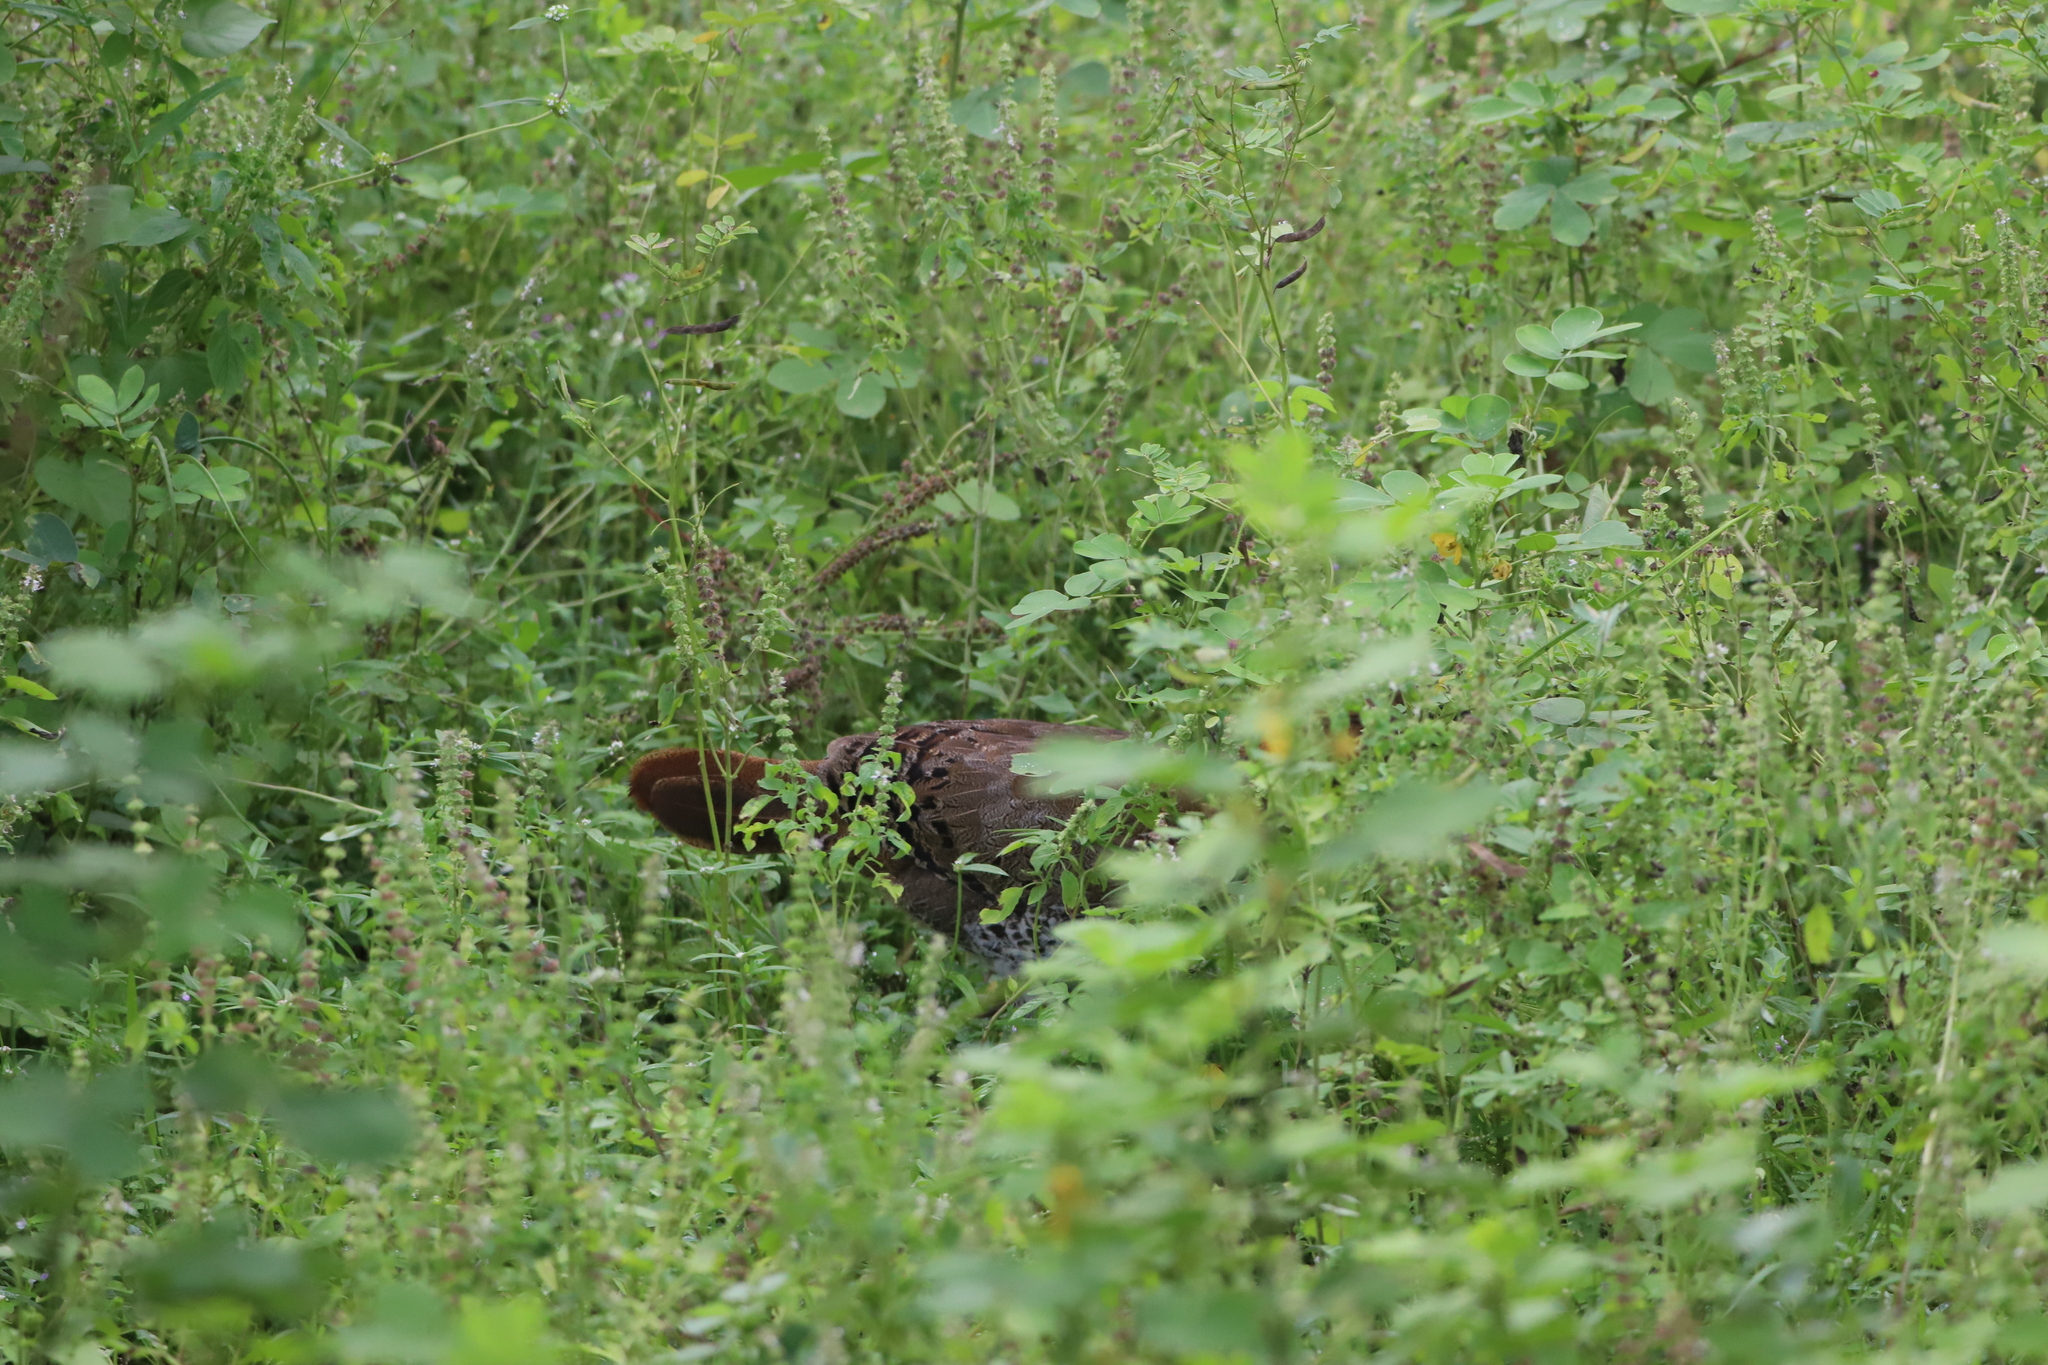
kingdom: Animalia
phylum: Chordata
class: Aves
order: Galliformes
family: Phasianidae
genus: Gallus
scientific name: Gallus lafayettii
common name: Sri lanka junglefowl
